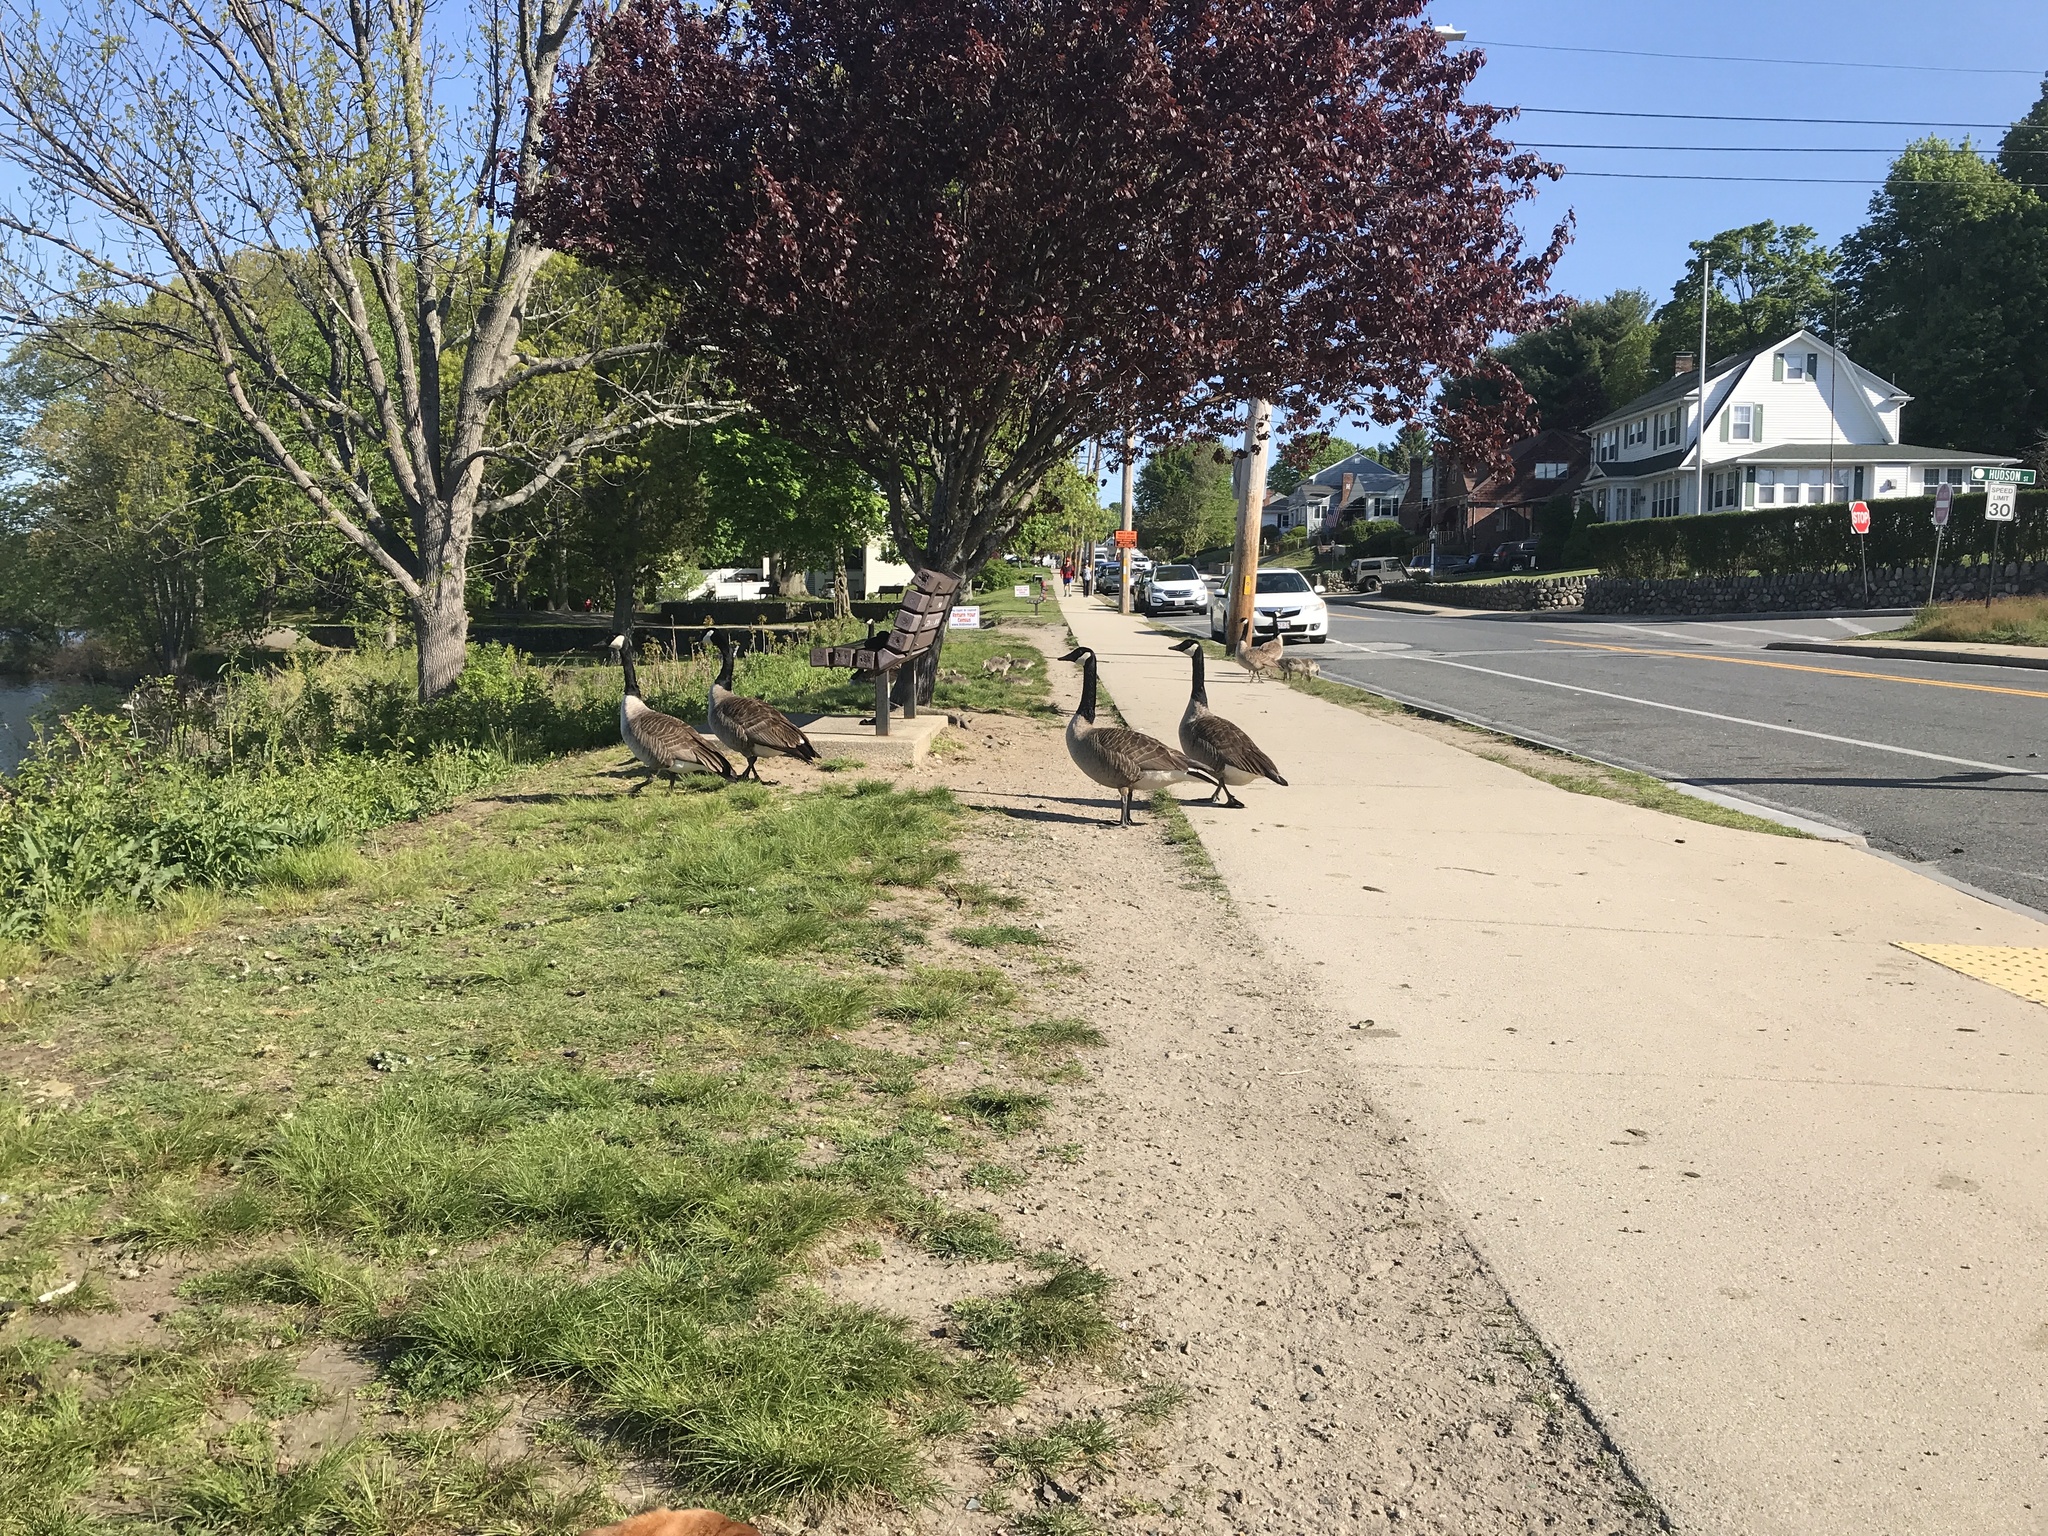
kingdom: Animalia
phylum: Chordata
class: Aves
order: Anseriformes
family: Anatidae
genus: Branta
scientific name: Branta canadensis
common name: Canada goose
